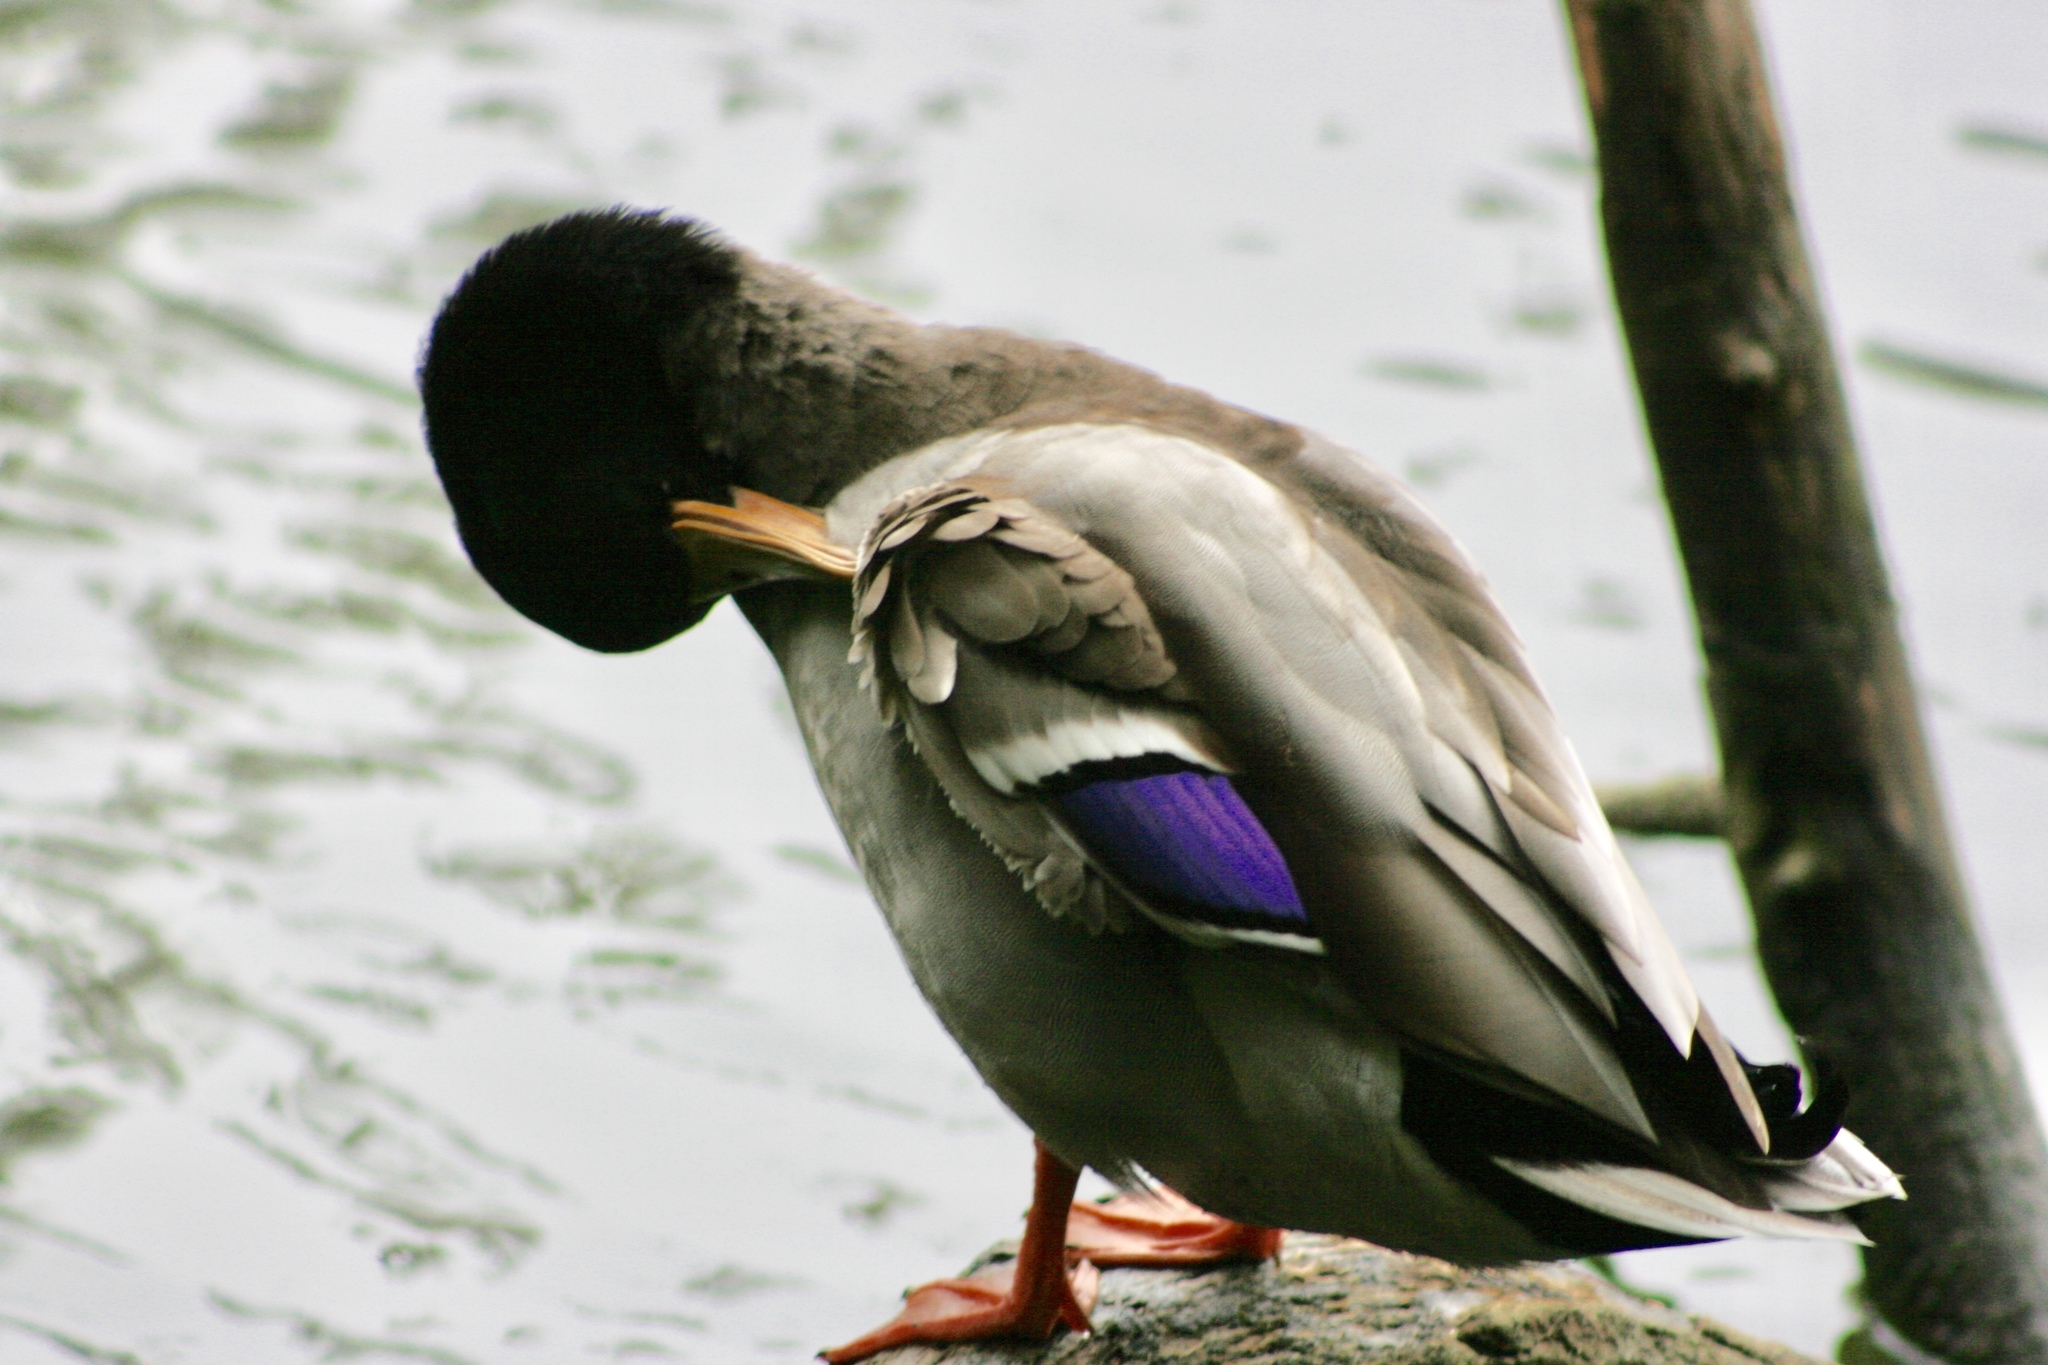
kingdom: Animalia
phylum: Chordata
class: Aves
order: Anseriformes
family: Anatidae
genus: Anas
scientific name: Anas platyrhynchos
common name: Mallard
